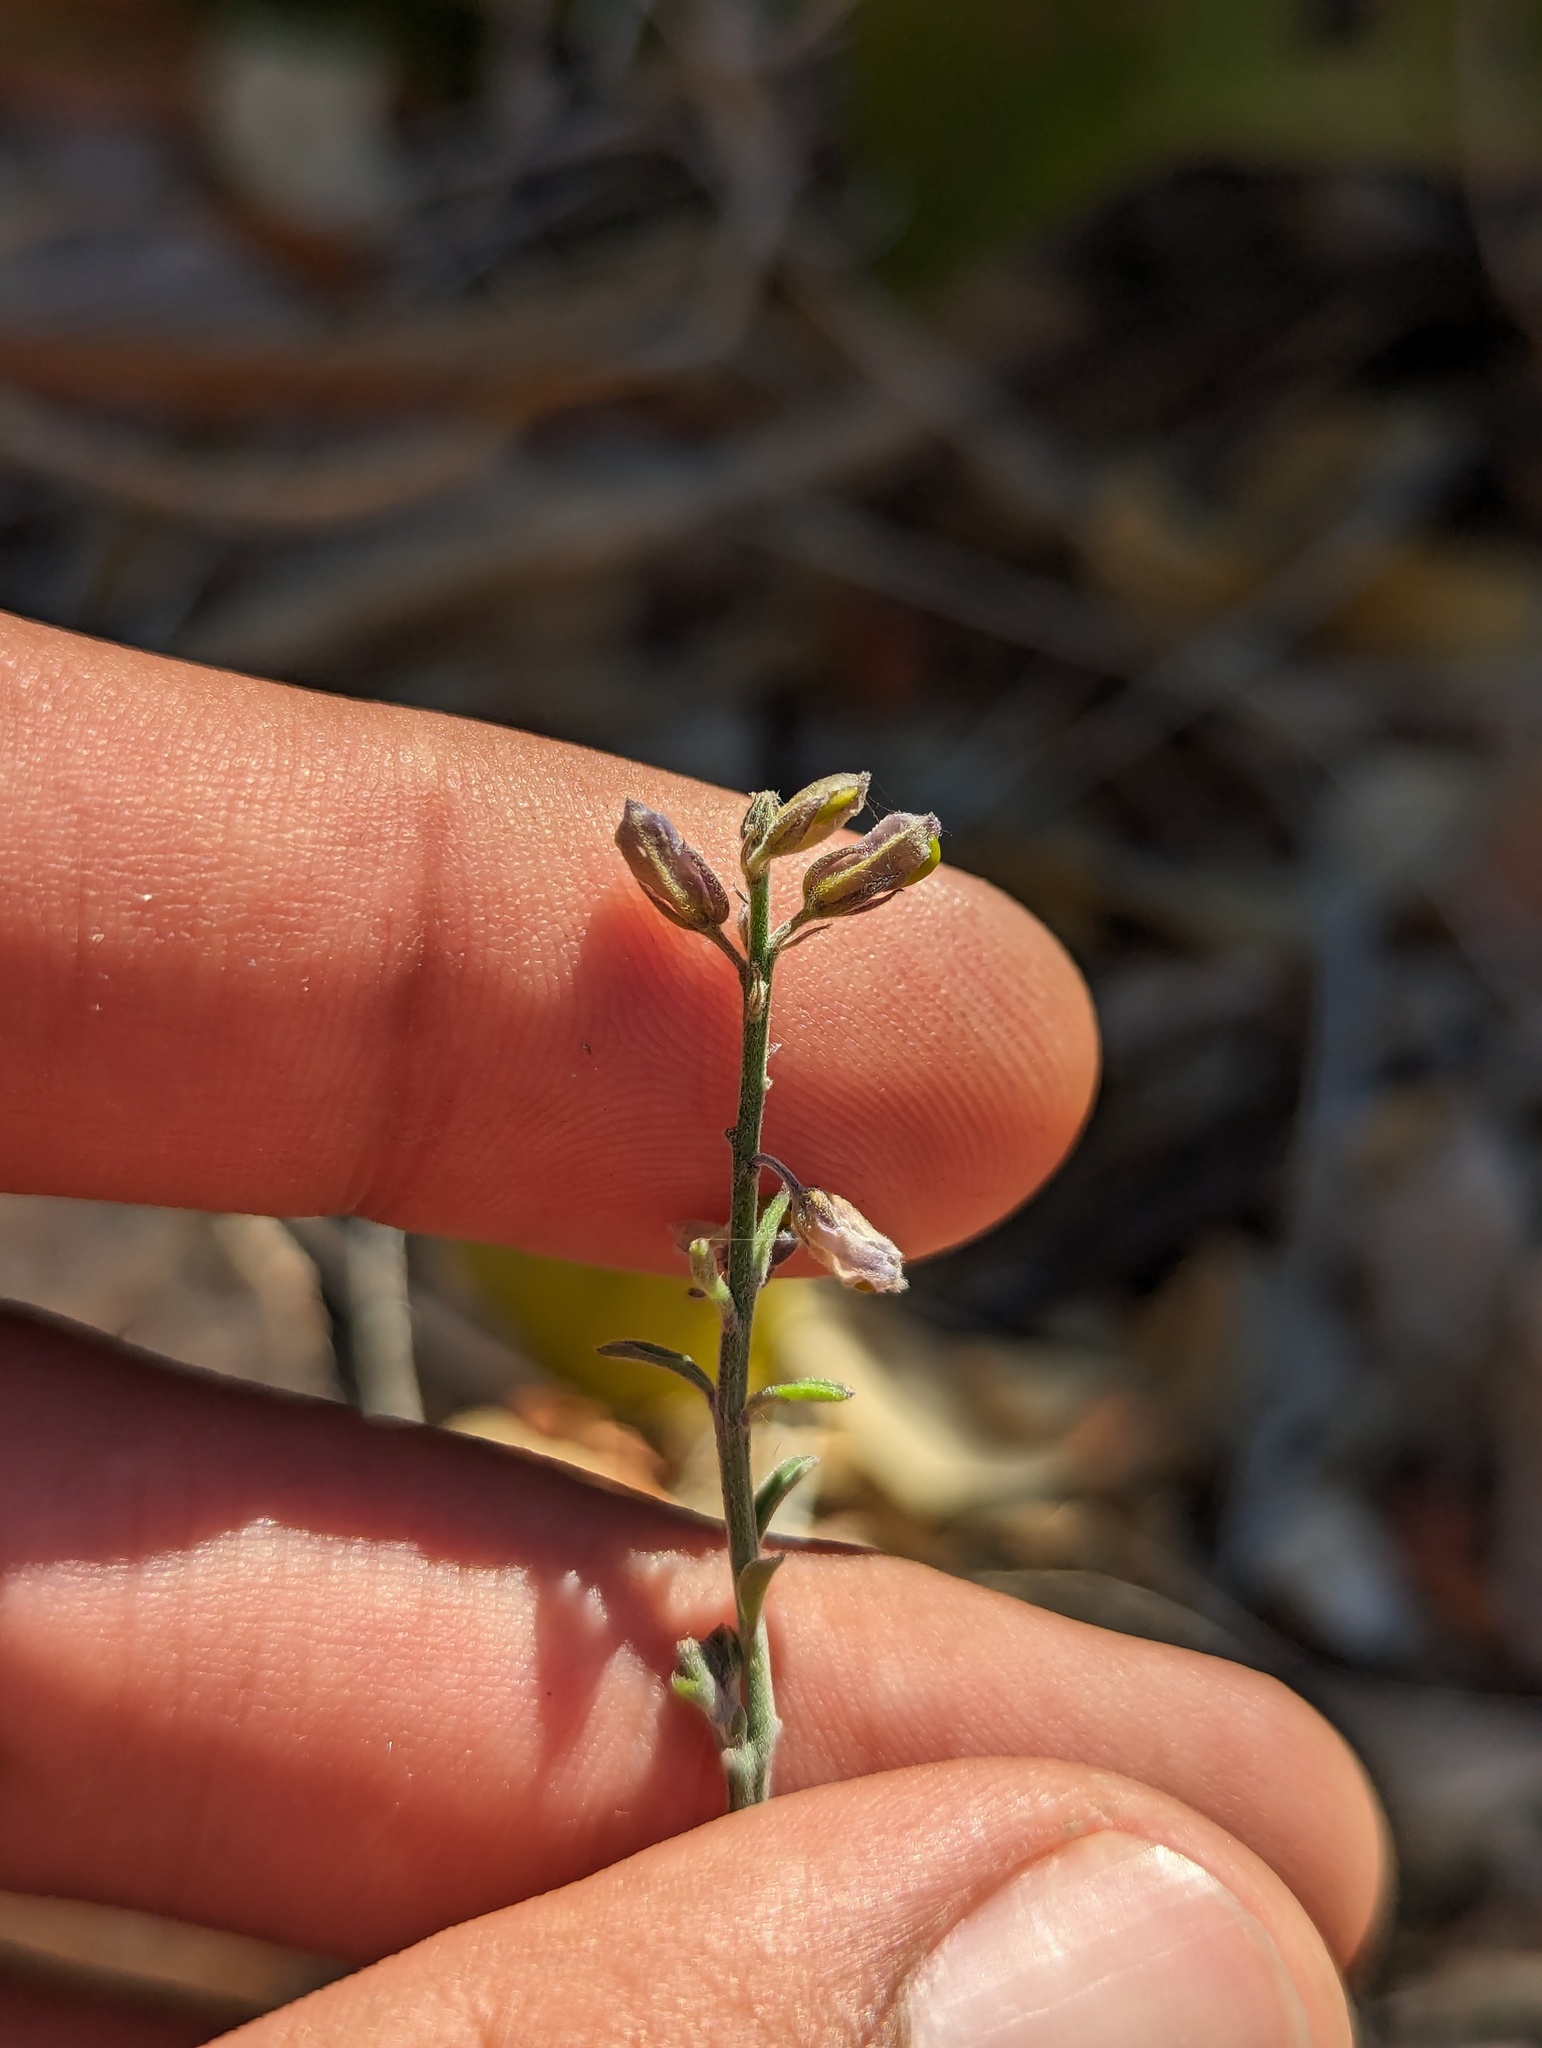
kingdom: Plantae
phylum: Tracheophyta
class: Magnoliopsida
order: Fabales
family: Polygalaceae
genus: Polygala
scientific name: Polygala magdalenae
